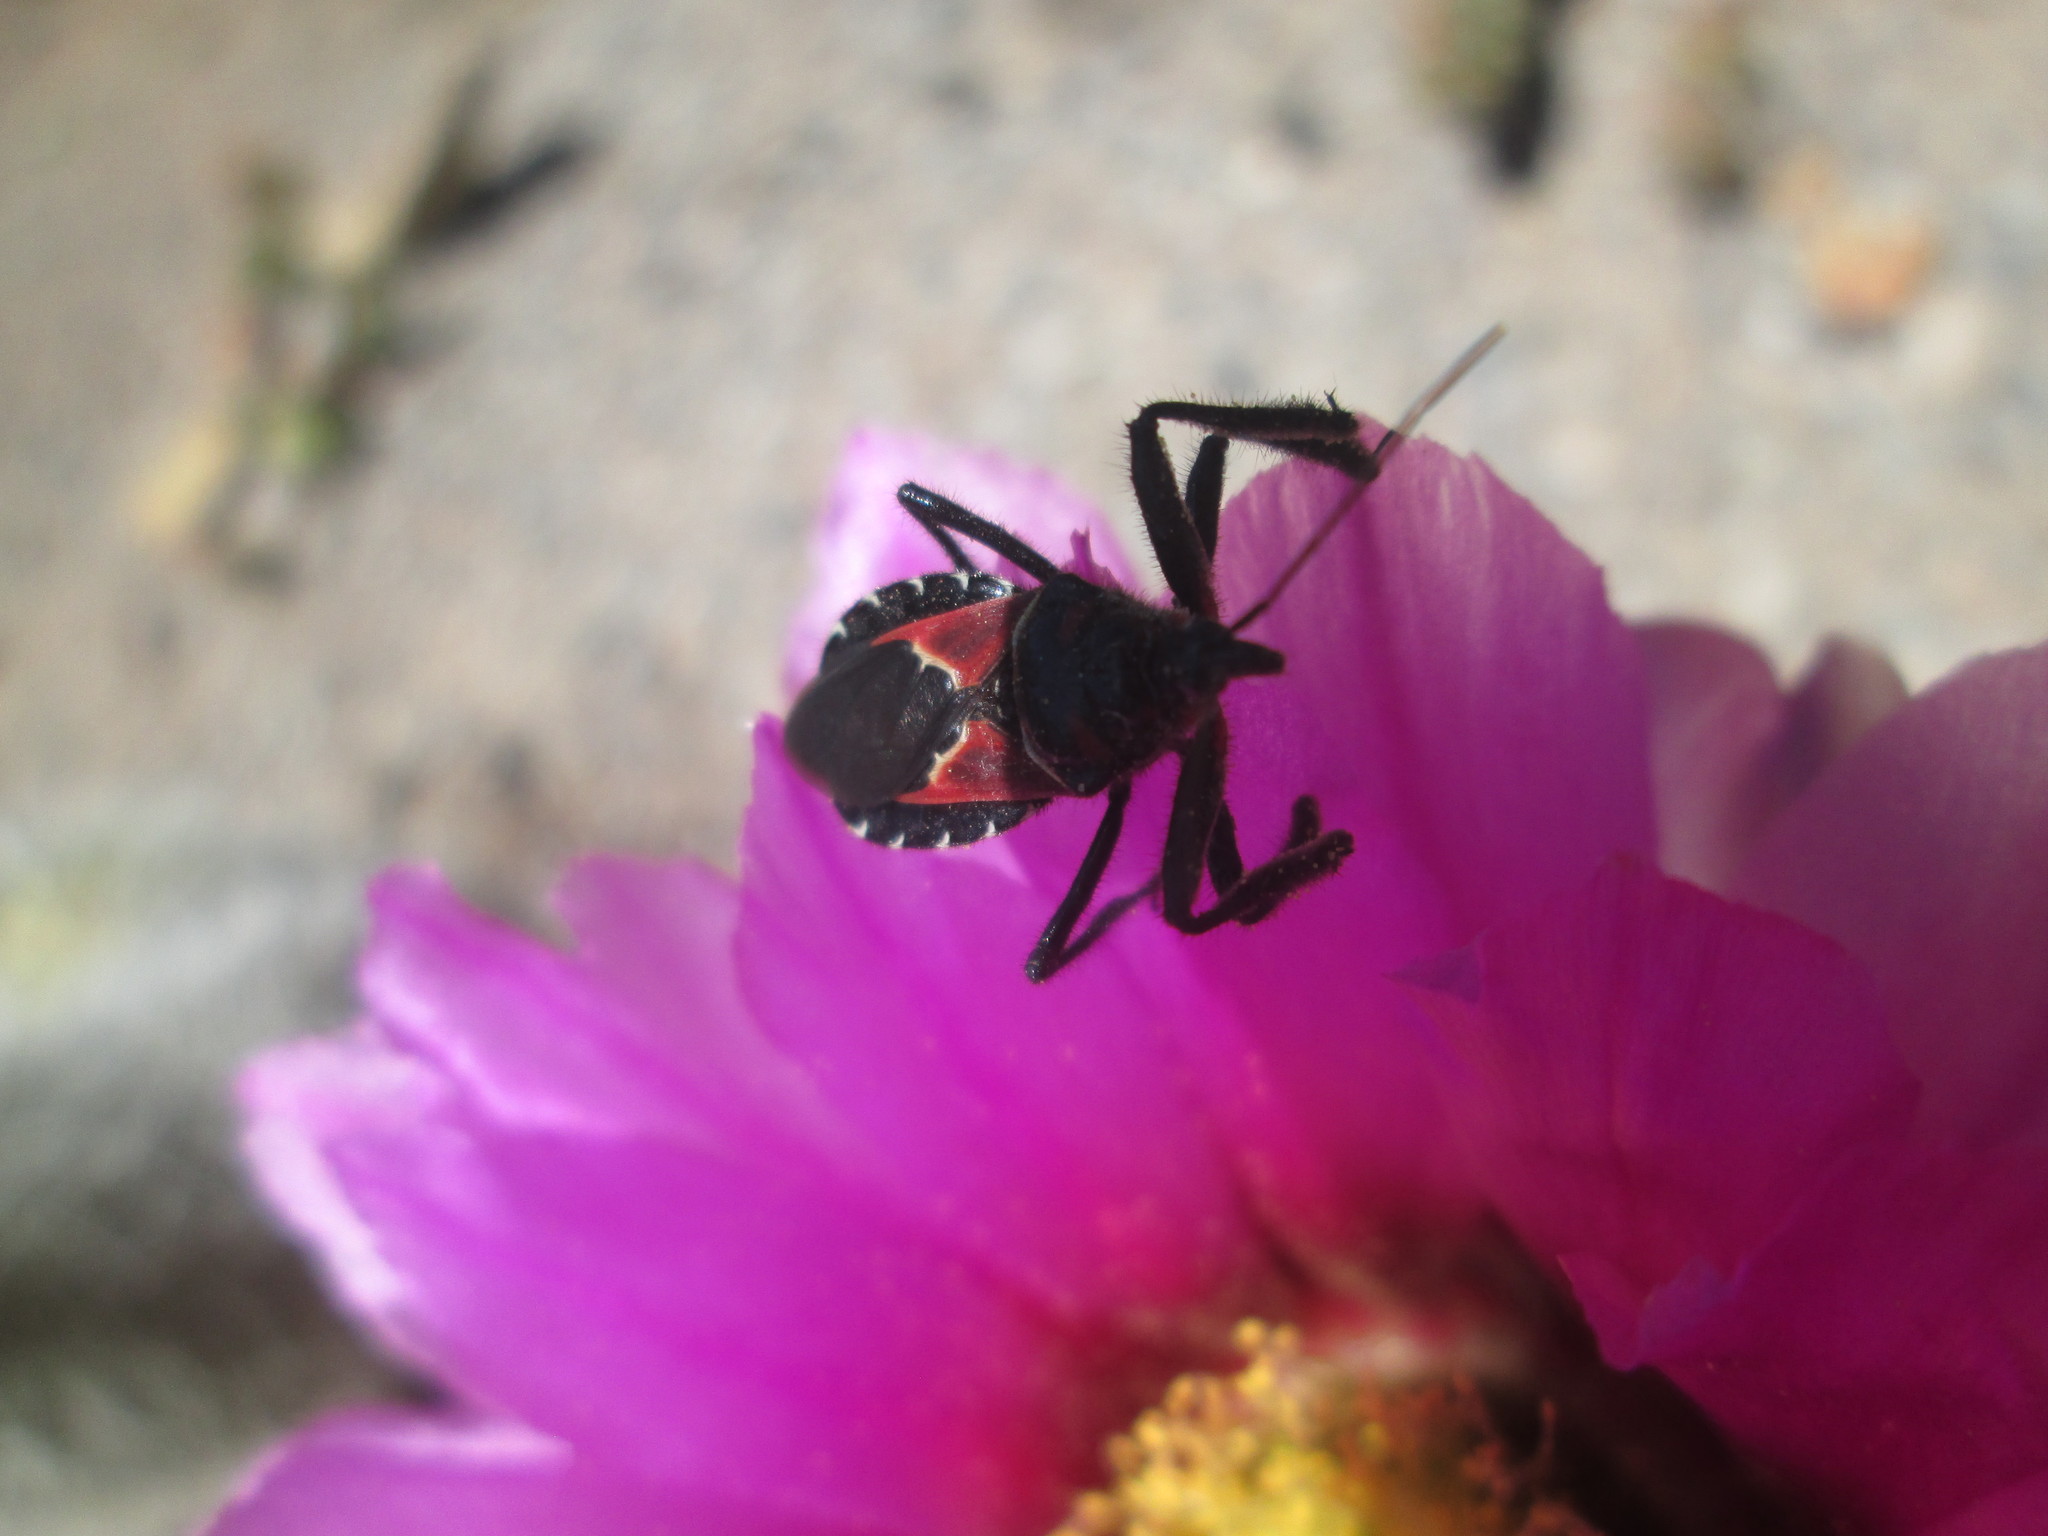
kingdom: Animalia
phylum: Arthropoda
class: Insecta
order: Hemiptera
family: Reduviidae
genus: Apiomerus
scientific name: Apiomerus montanus
